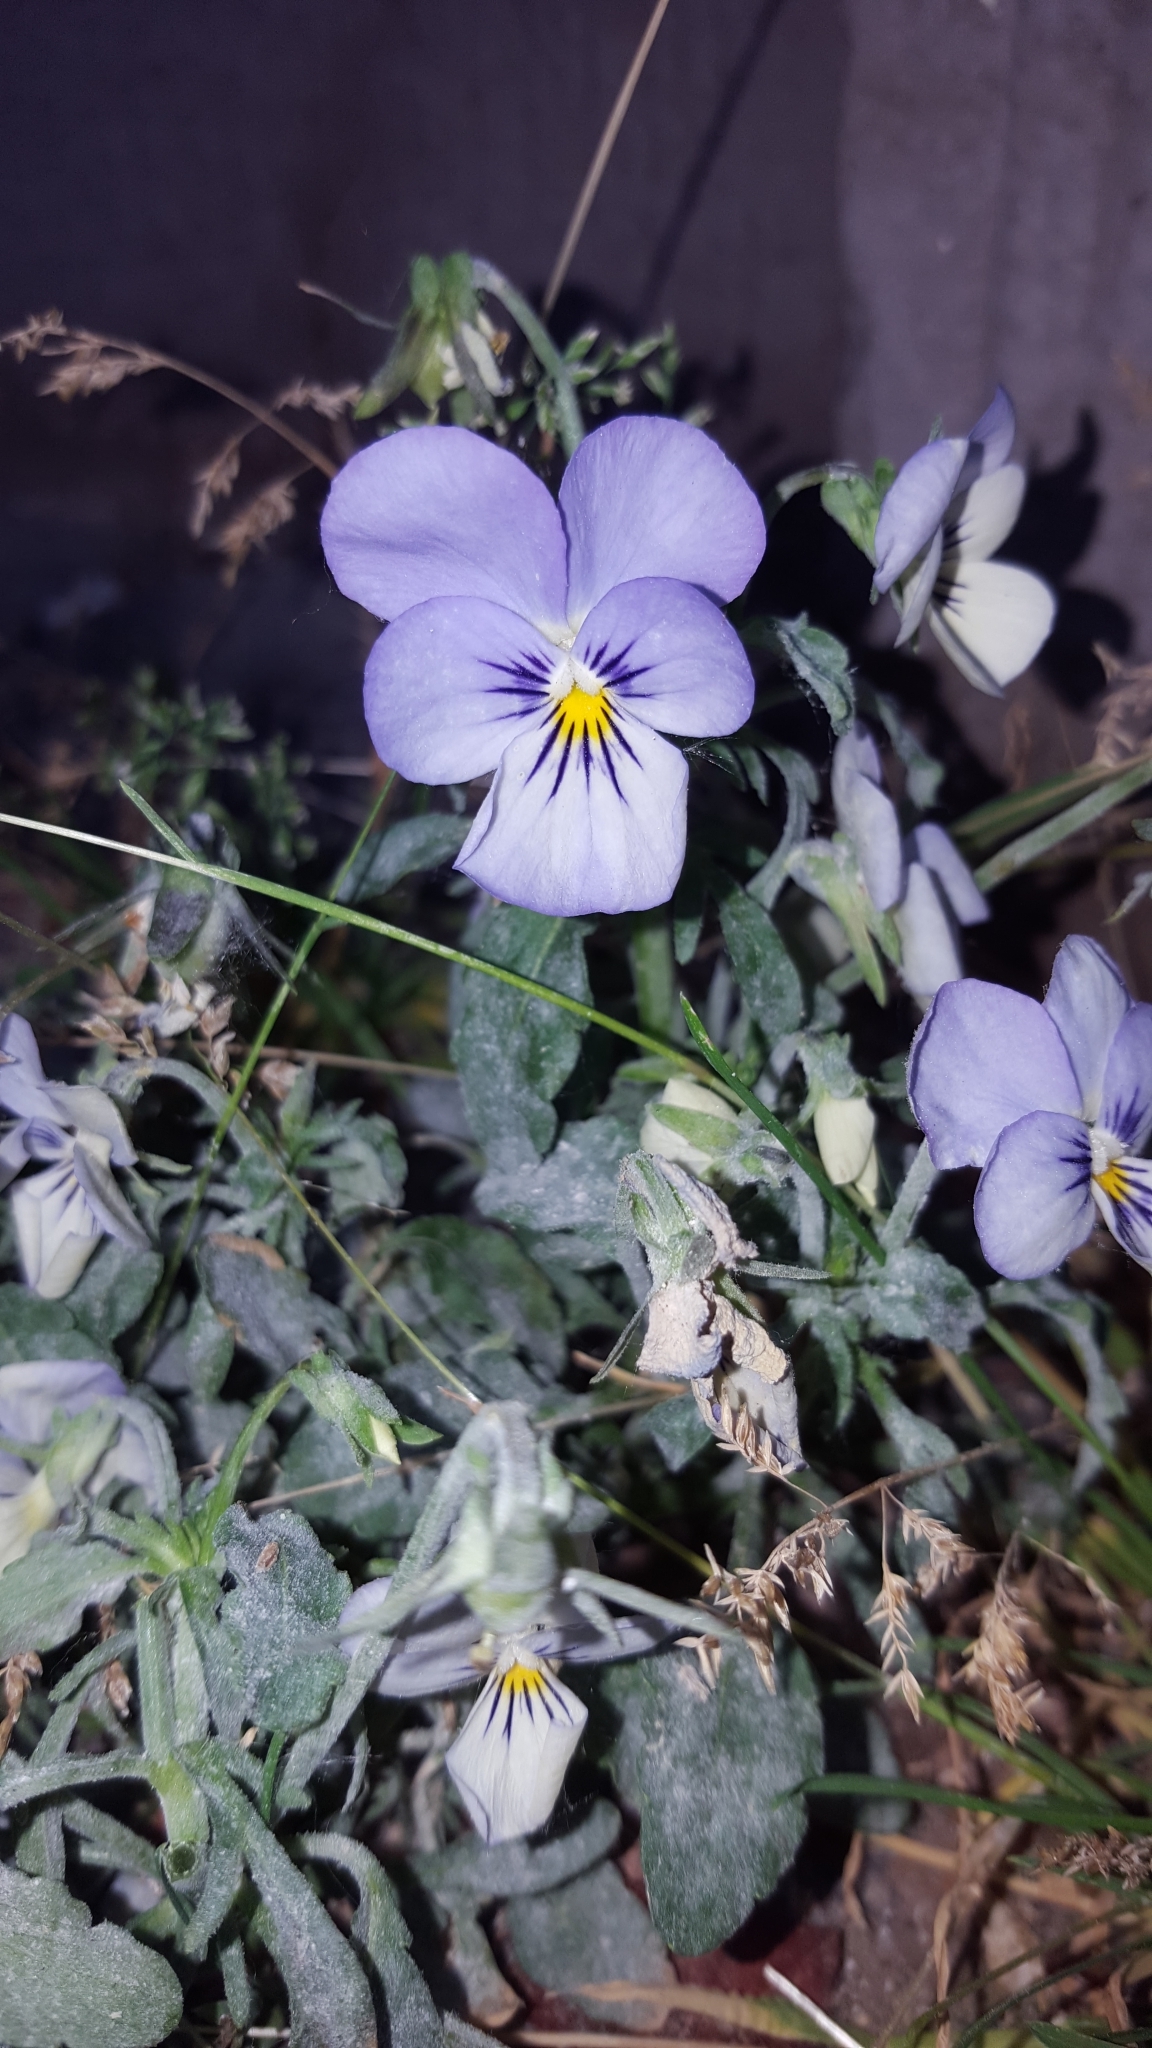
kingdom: Plantae
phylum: Tracheophyta
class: Magnoliopsida
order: Malpighiales
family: Violaceae
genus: Viola
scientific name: Viola wittrockiana
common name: Garden pansy
